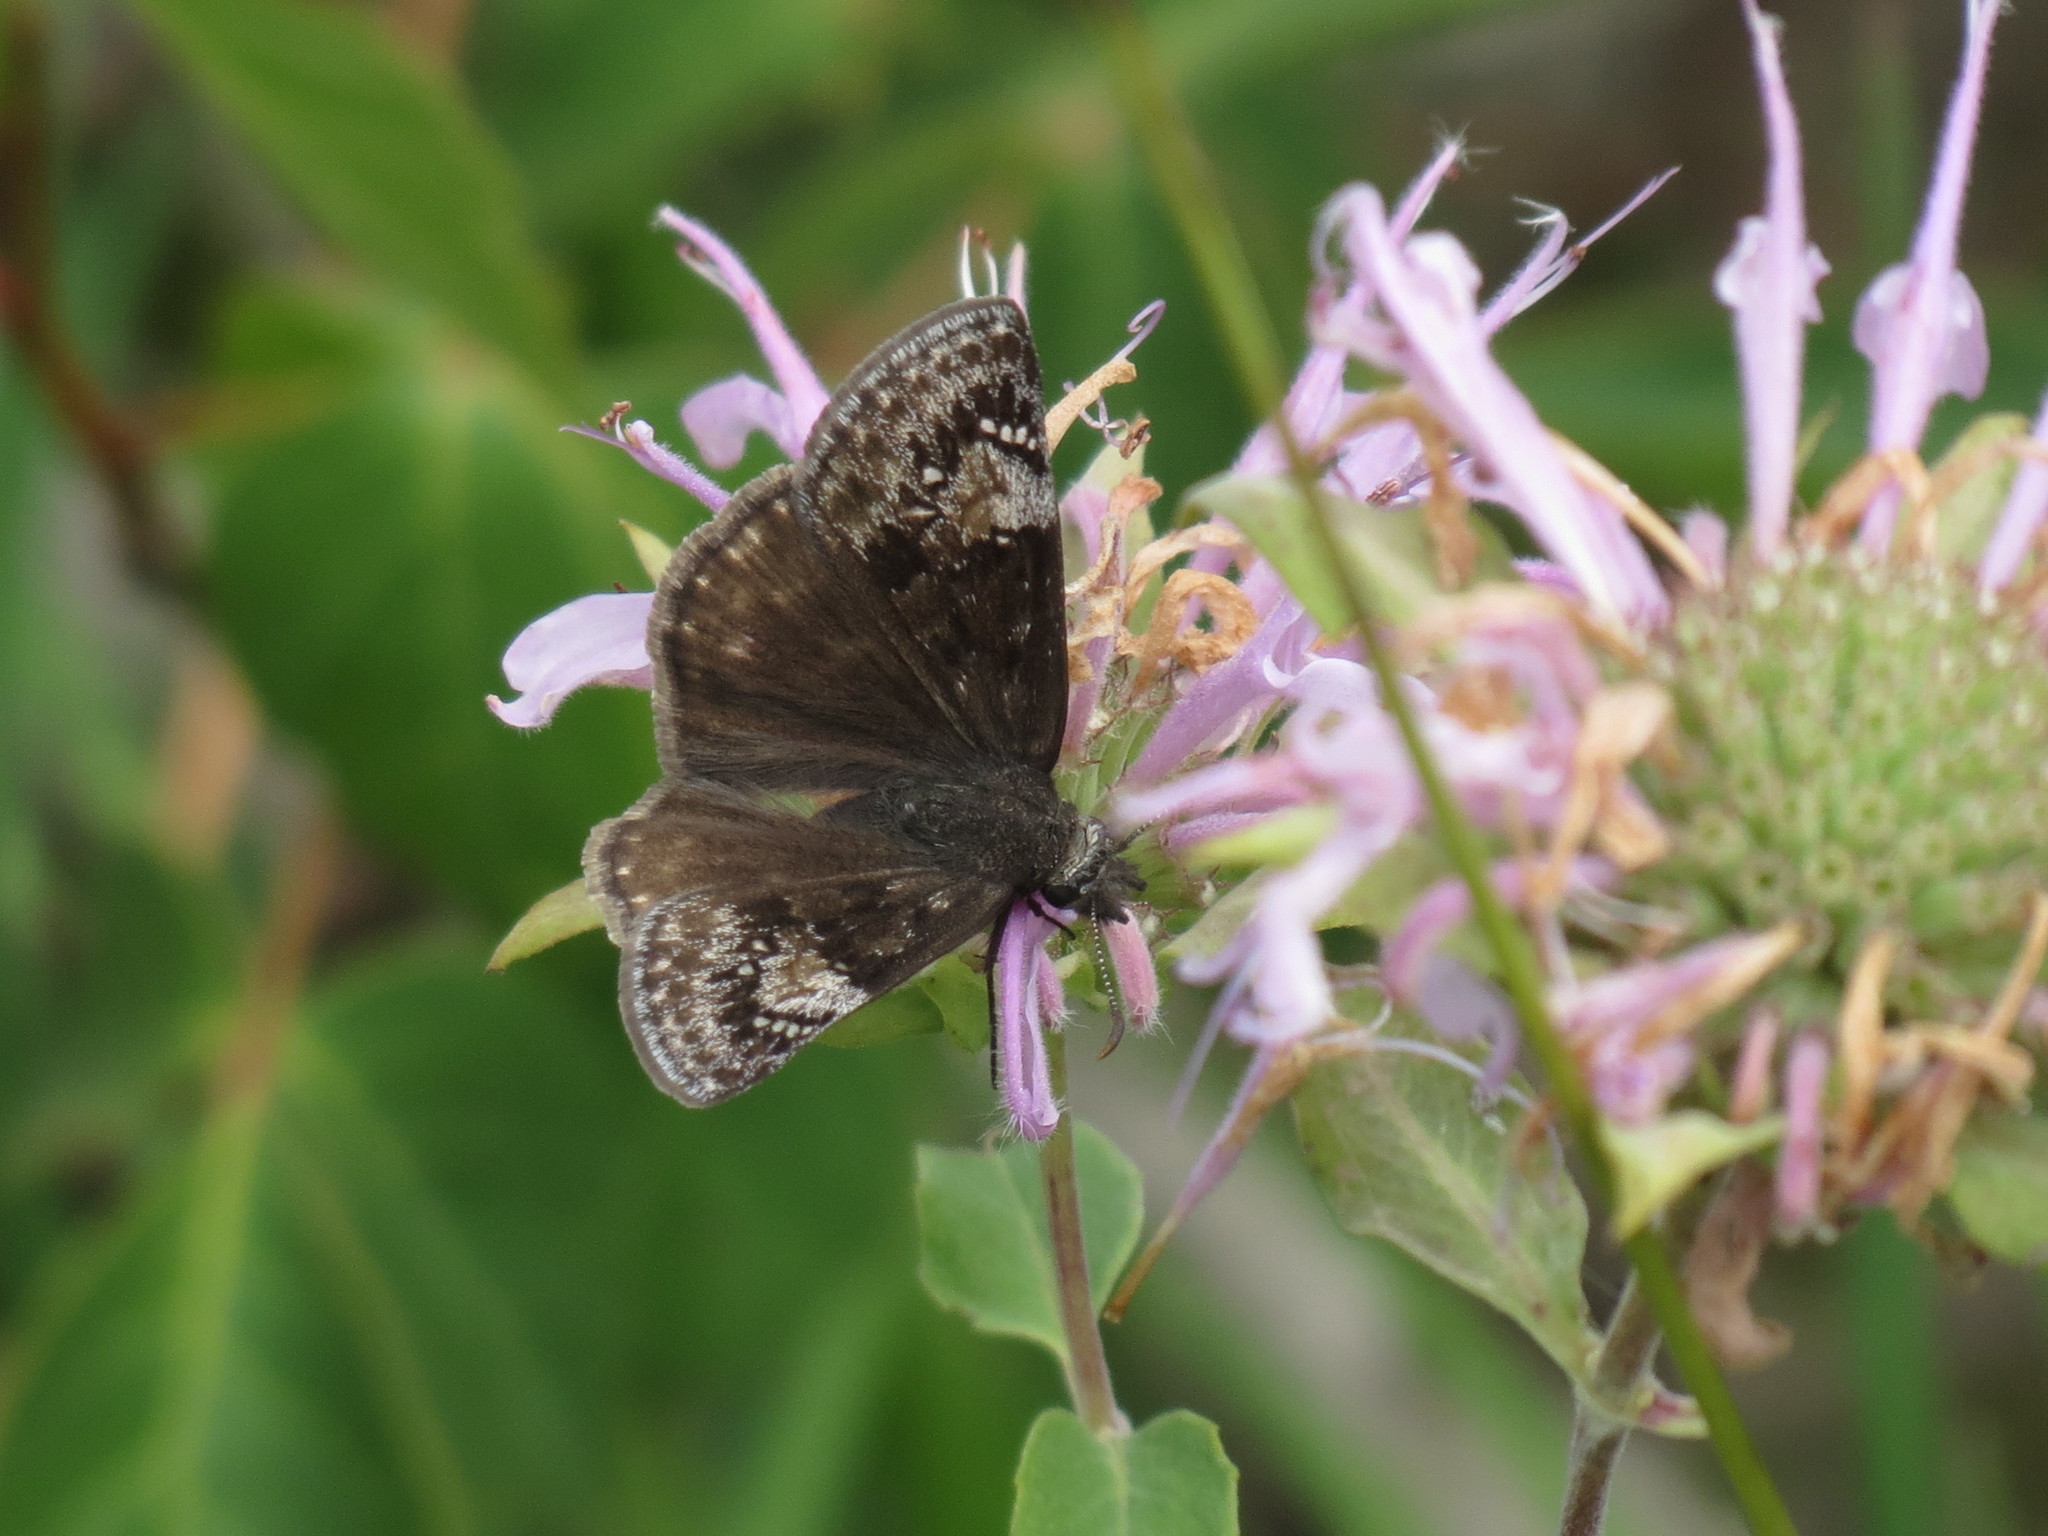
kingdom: Animalia
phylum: Arthropoda
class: Insecta
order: Lepidoptera
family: Hesperiidae
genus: Erynnis
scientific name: Erynnis lucilius
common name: Columbine duskywing
